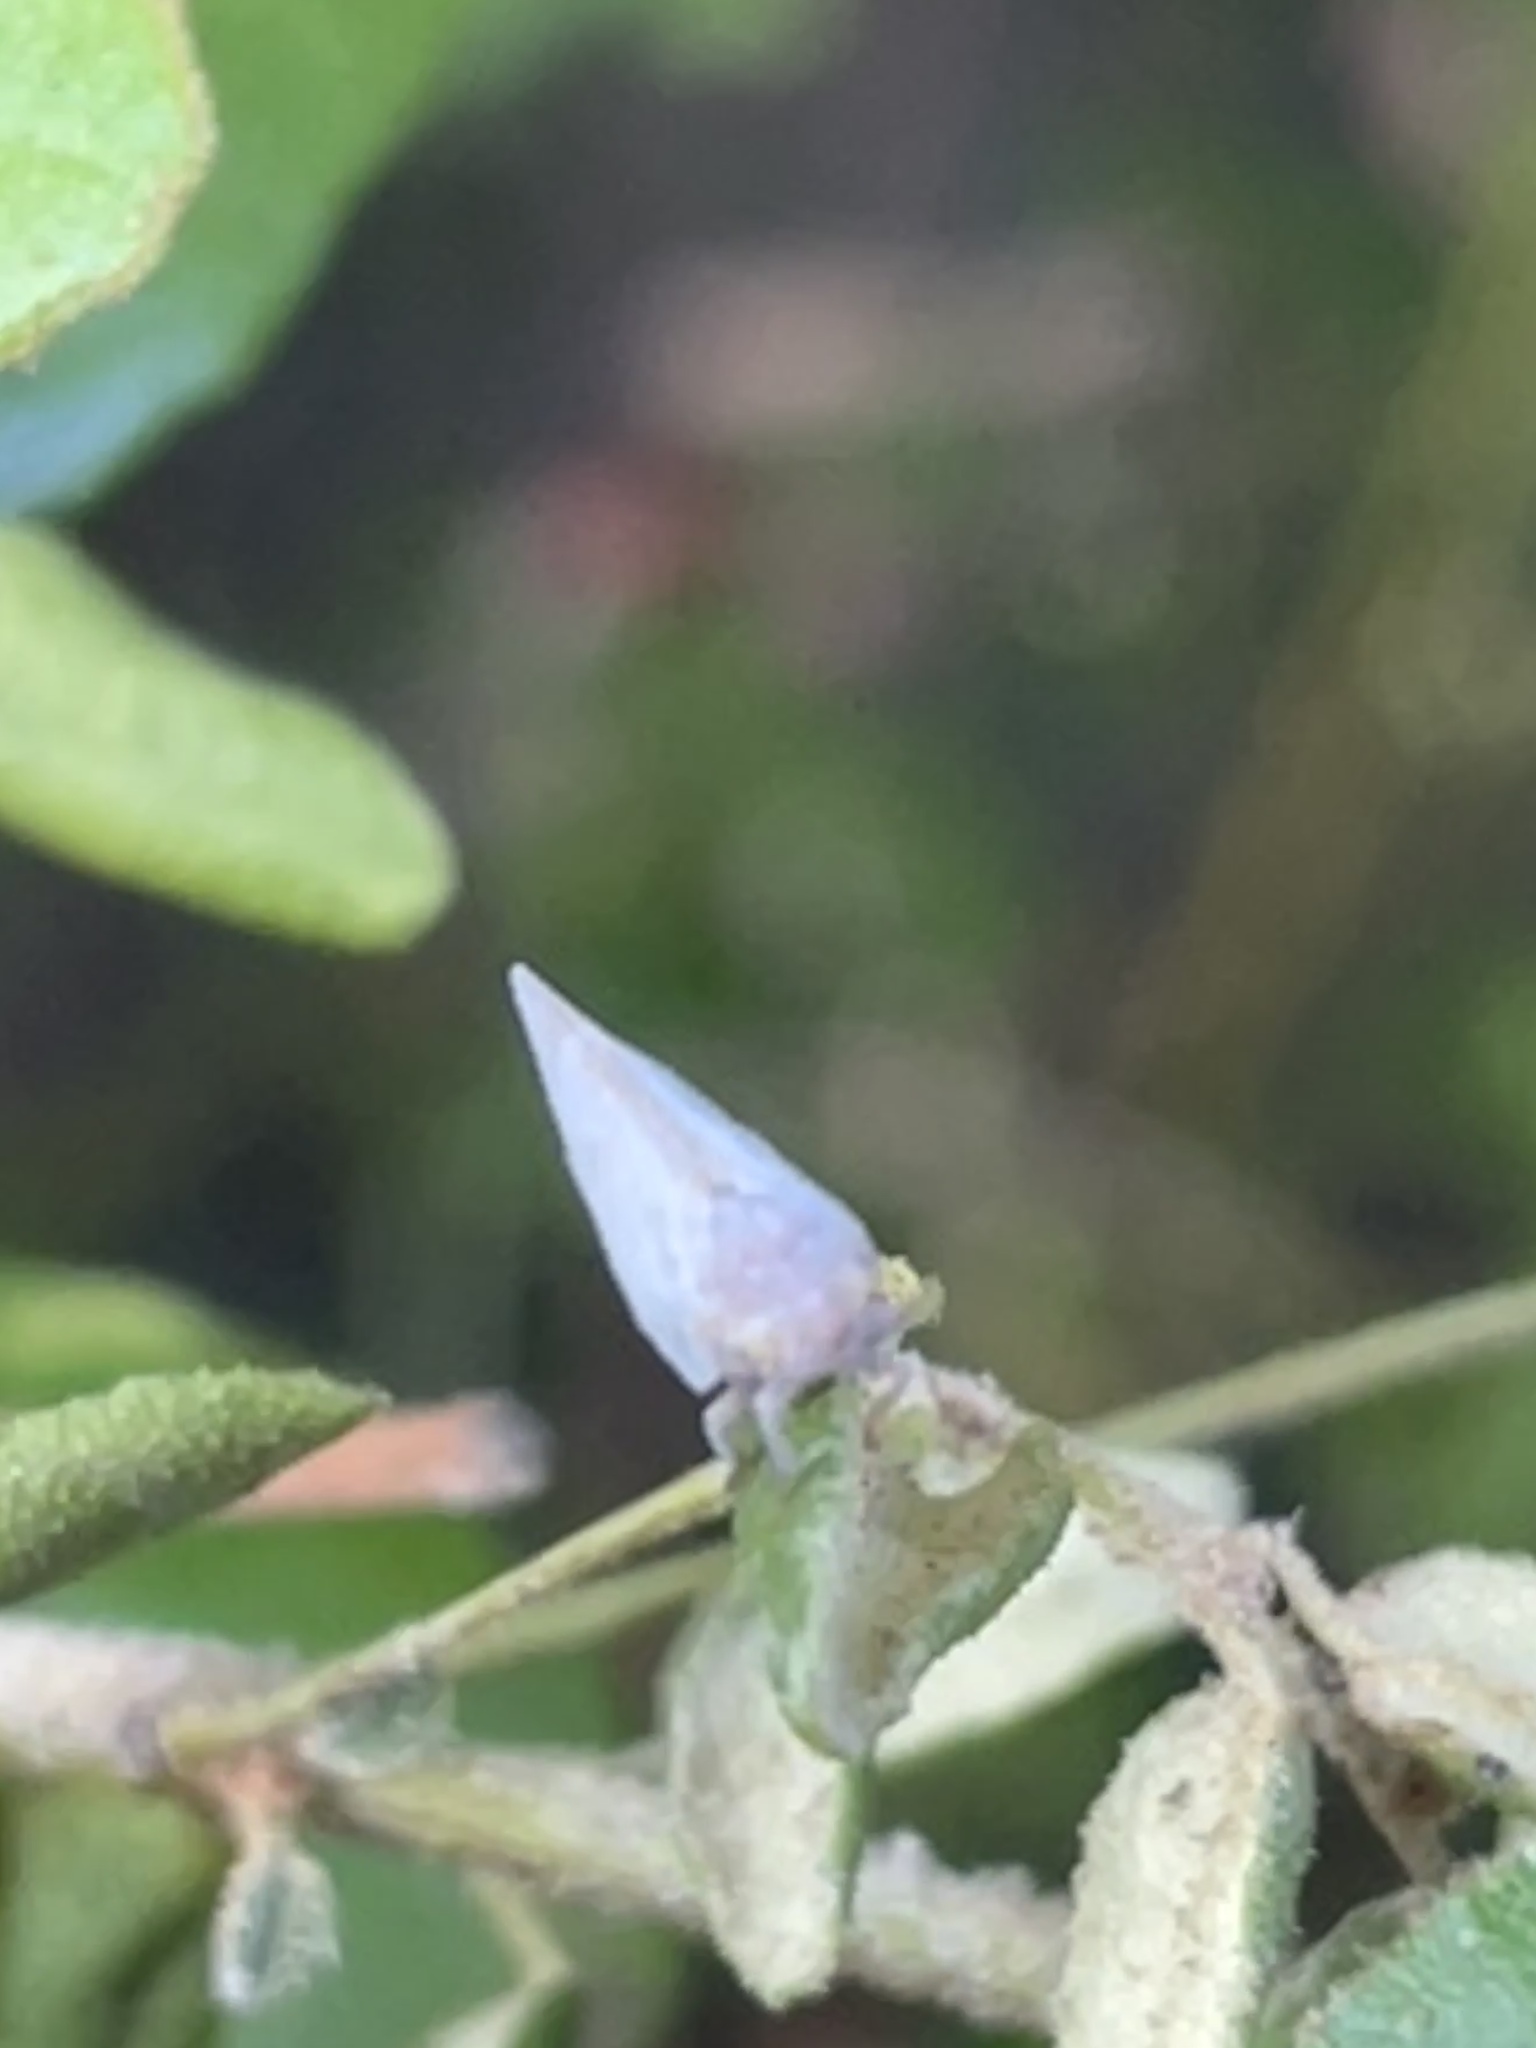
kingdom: Animalia
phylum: Arthropoda
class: Insecta
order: Hemiptera
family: Flatidae
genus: Anzora
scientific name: Anzora unicolor
